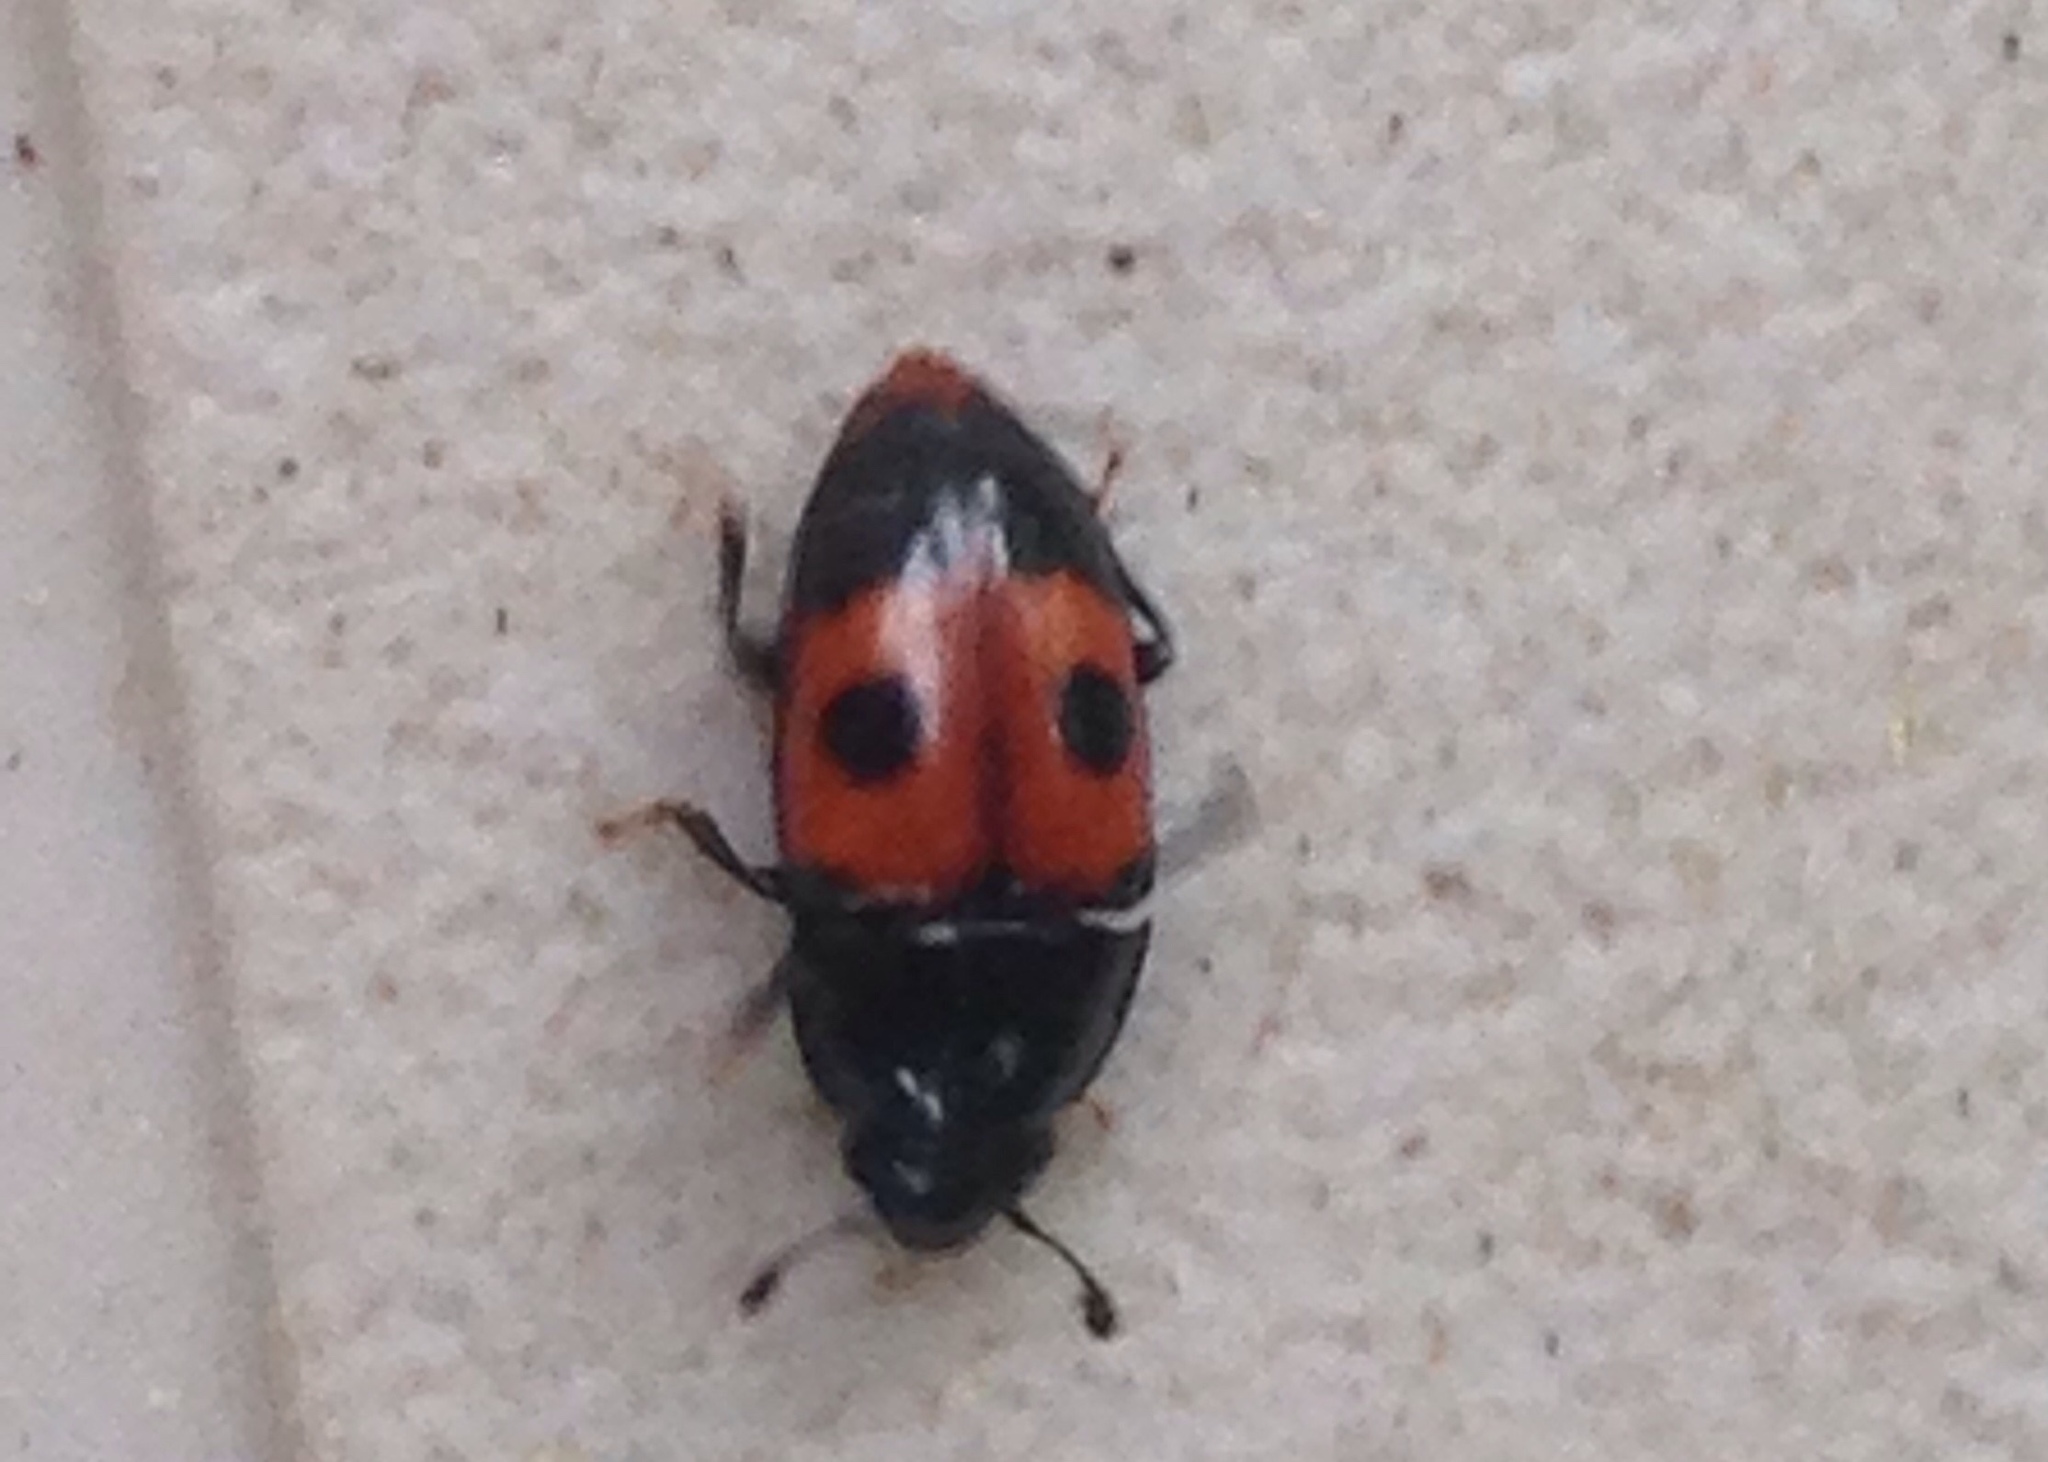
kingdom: Animalia
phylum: Arthropoda
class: Insecta
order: Coleoptera
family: Nitidulidae
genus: Glischrochilus
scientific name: Glischrochilus sanguinolentus
